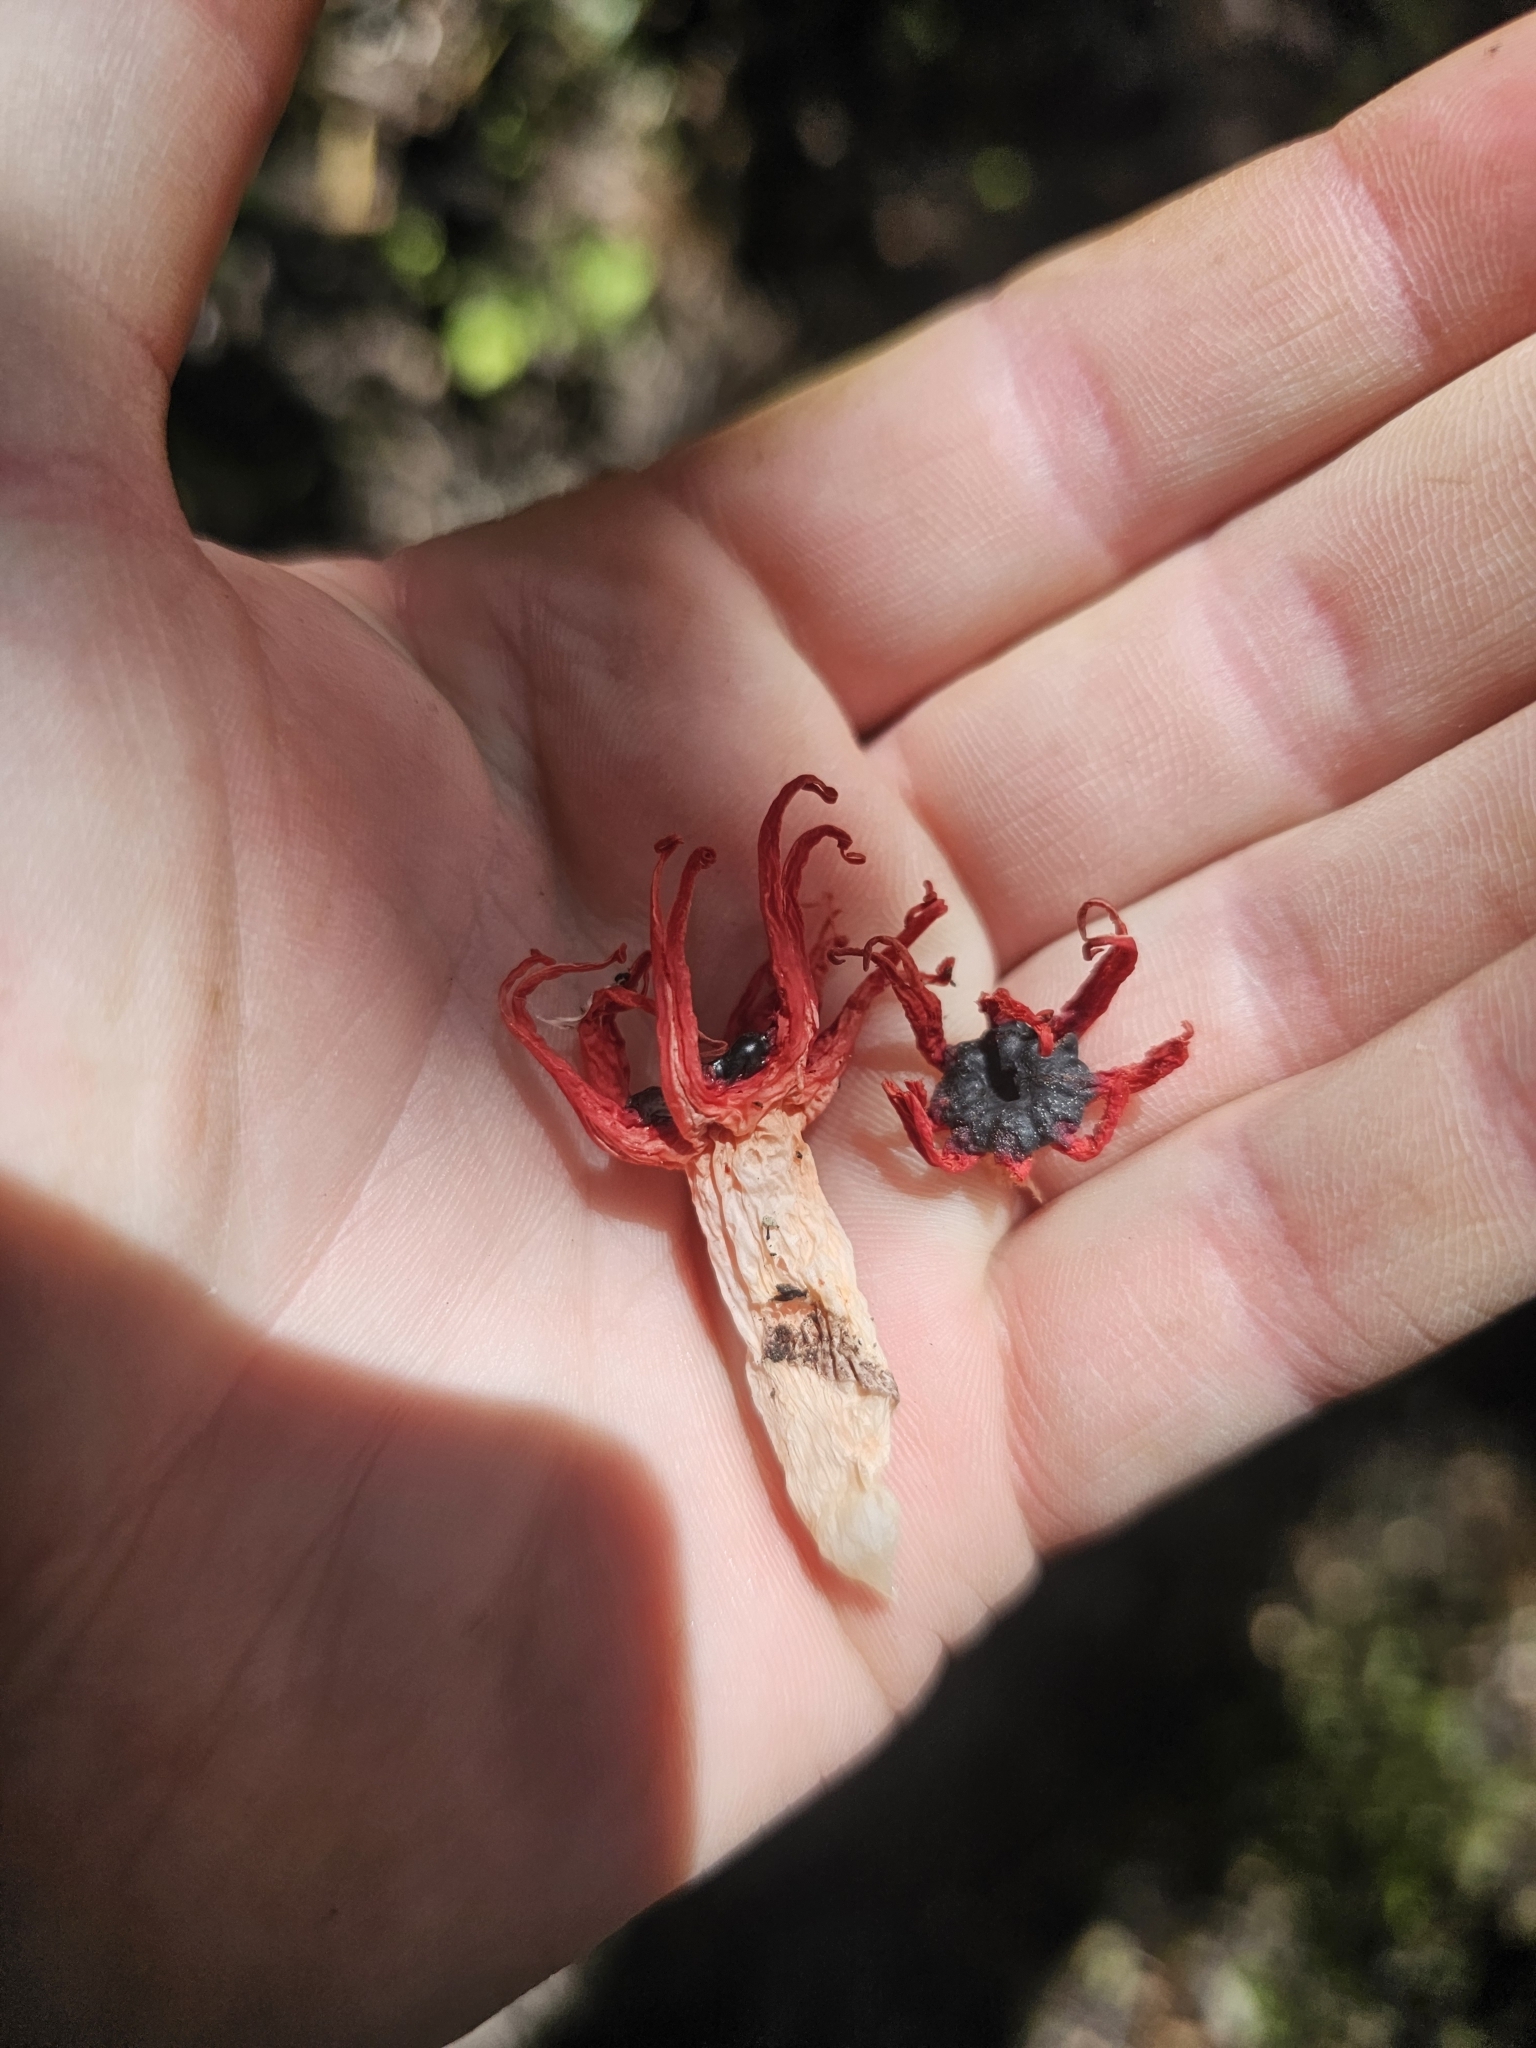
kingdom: Fungi
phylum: Basidiomycota
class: Agaricomycetes
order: Phallales
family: Phallaceae
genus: Aseroe
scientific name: Aseroe rubra
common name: Starfish fungus
